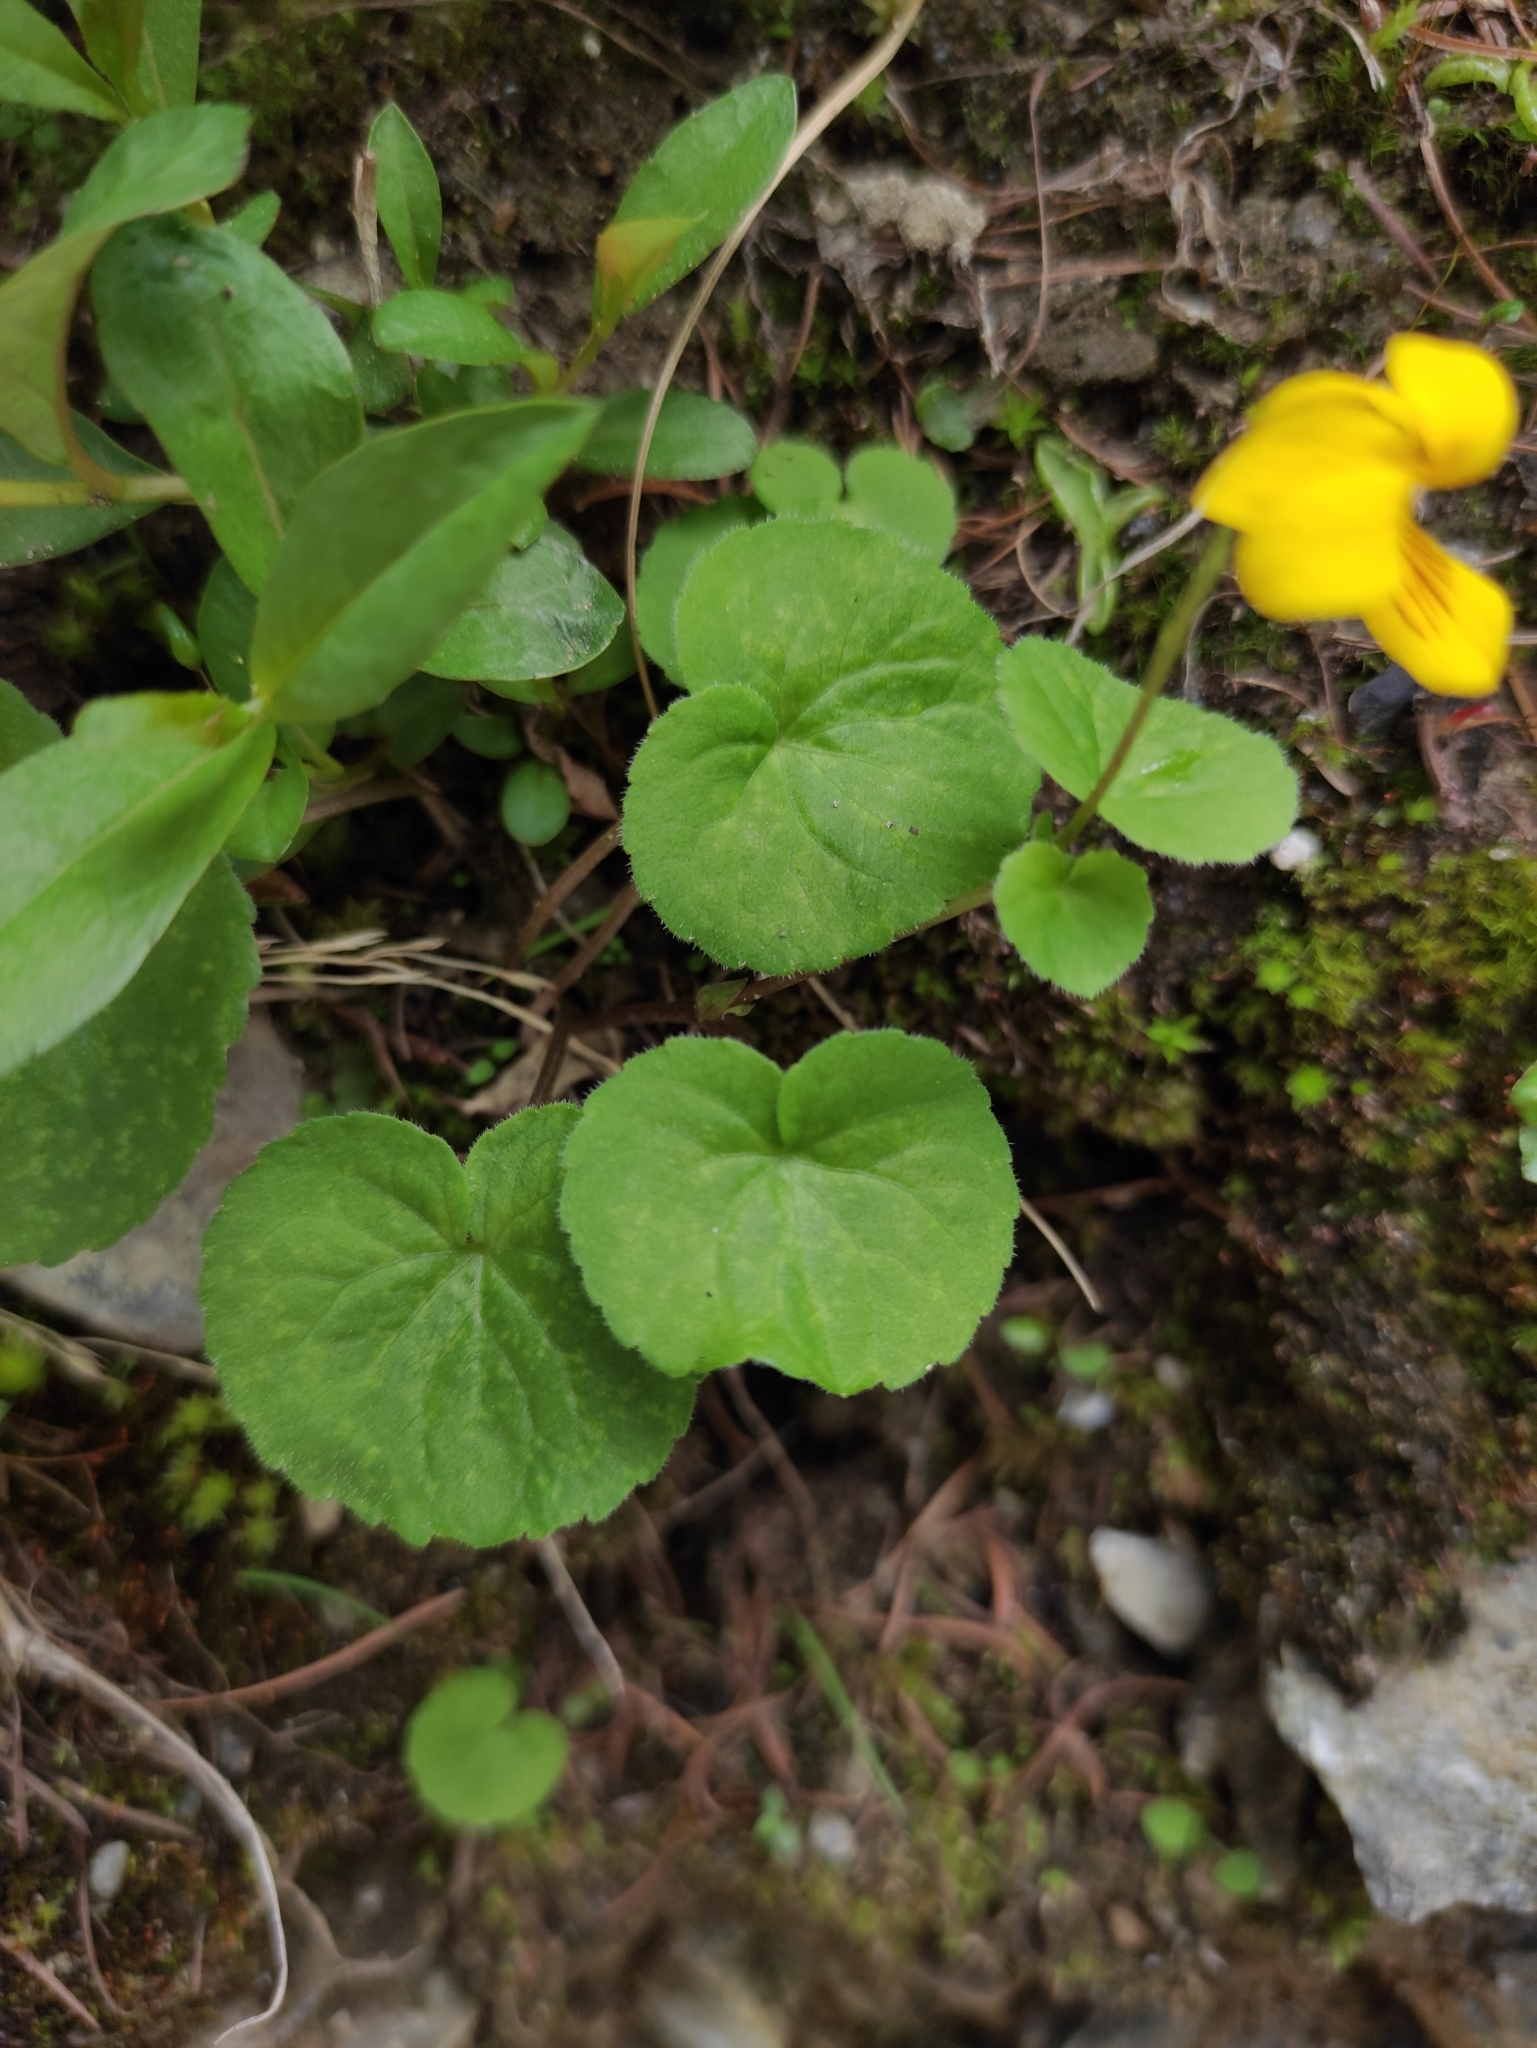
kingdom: Plantae
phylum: Tracheophyta
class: Magnoliopsida
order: Malpighiales
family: Violaceae
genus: Viola
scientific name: Viola biflora
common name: Alpine yellow violet
